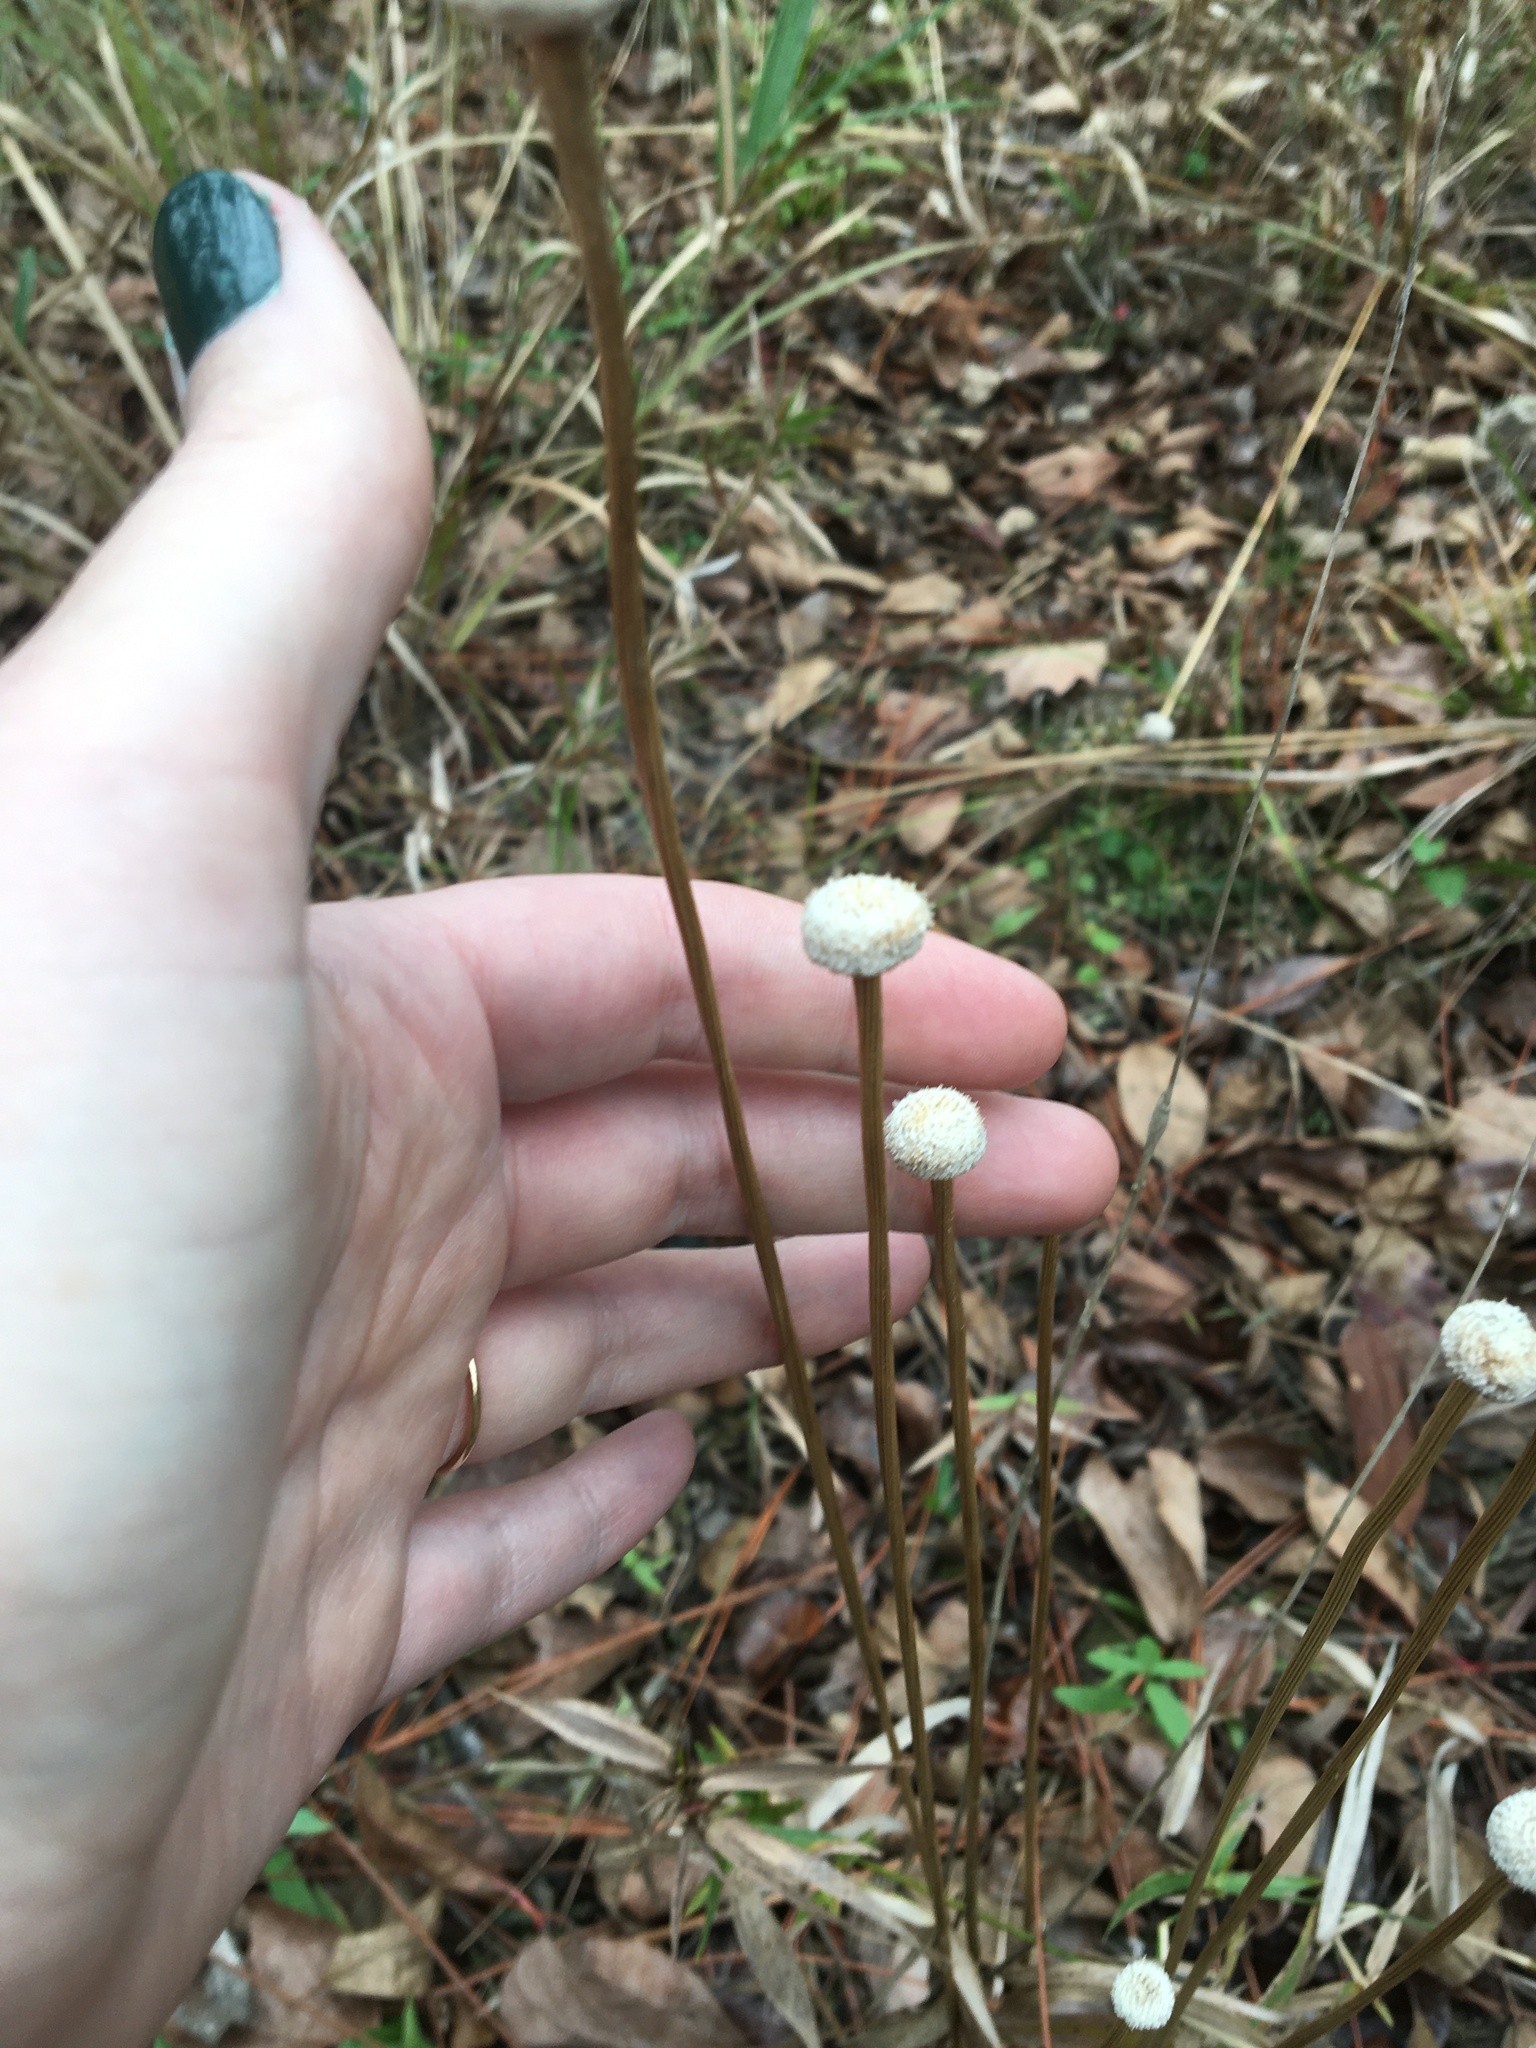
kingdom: Plantae
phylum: Tracheophyta
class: Liliopsida
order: Poales
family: Eriocaulaceae
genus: Eriocaulon
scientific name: Eriocaulon decangulare
